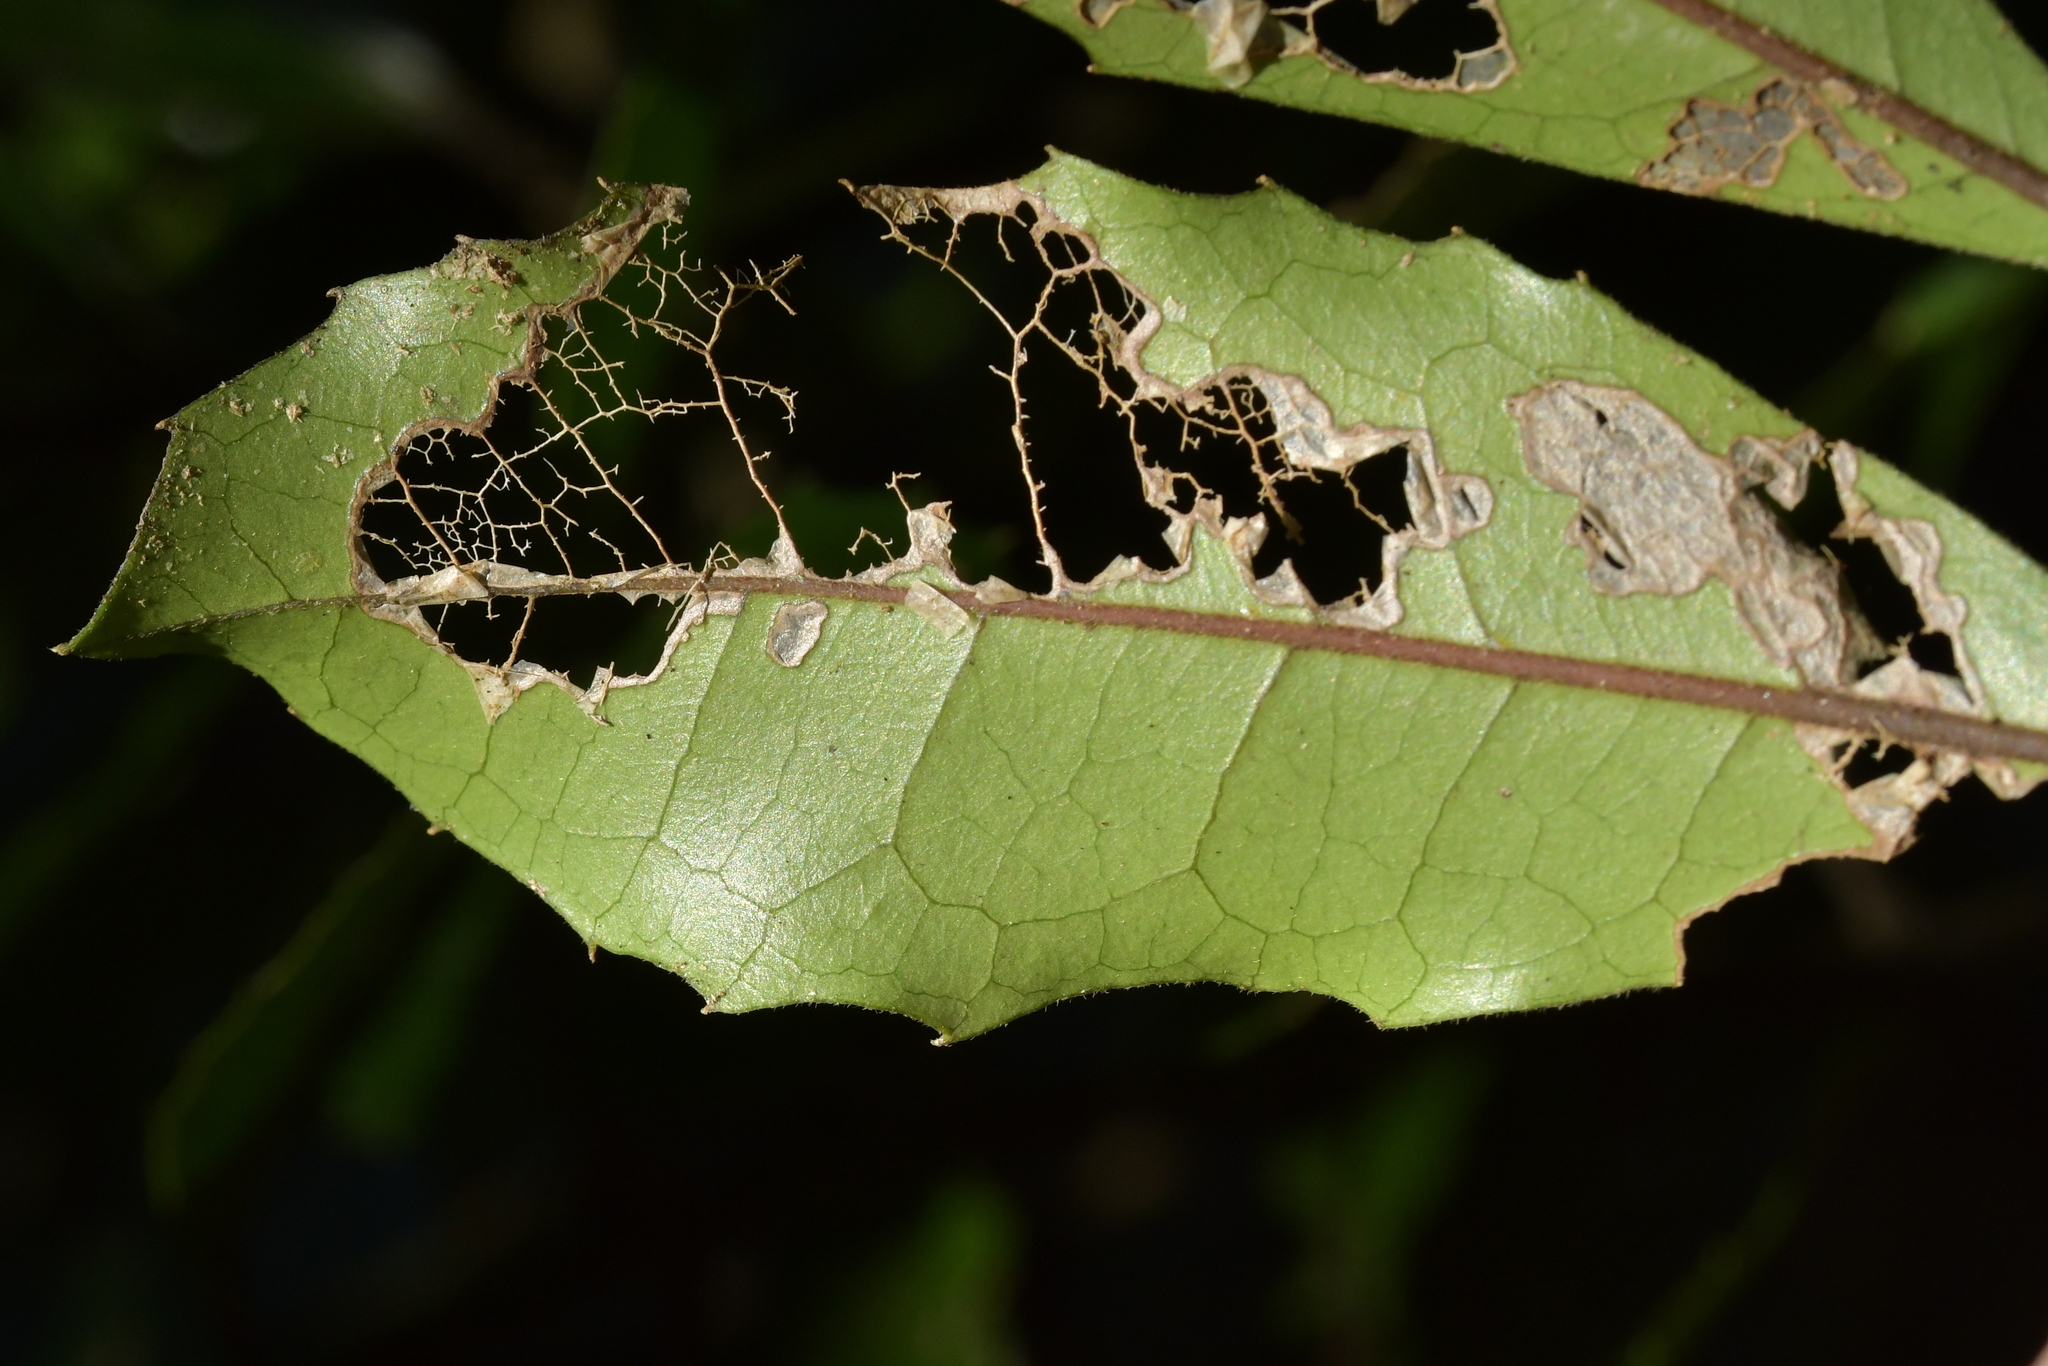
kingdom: Plantae
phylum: Tracheophyta
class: Magnoliopsida
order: Laurales
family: Monimiaceae
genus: Hedycarya
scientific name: Hedycarya arborea
